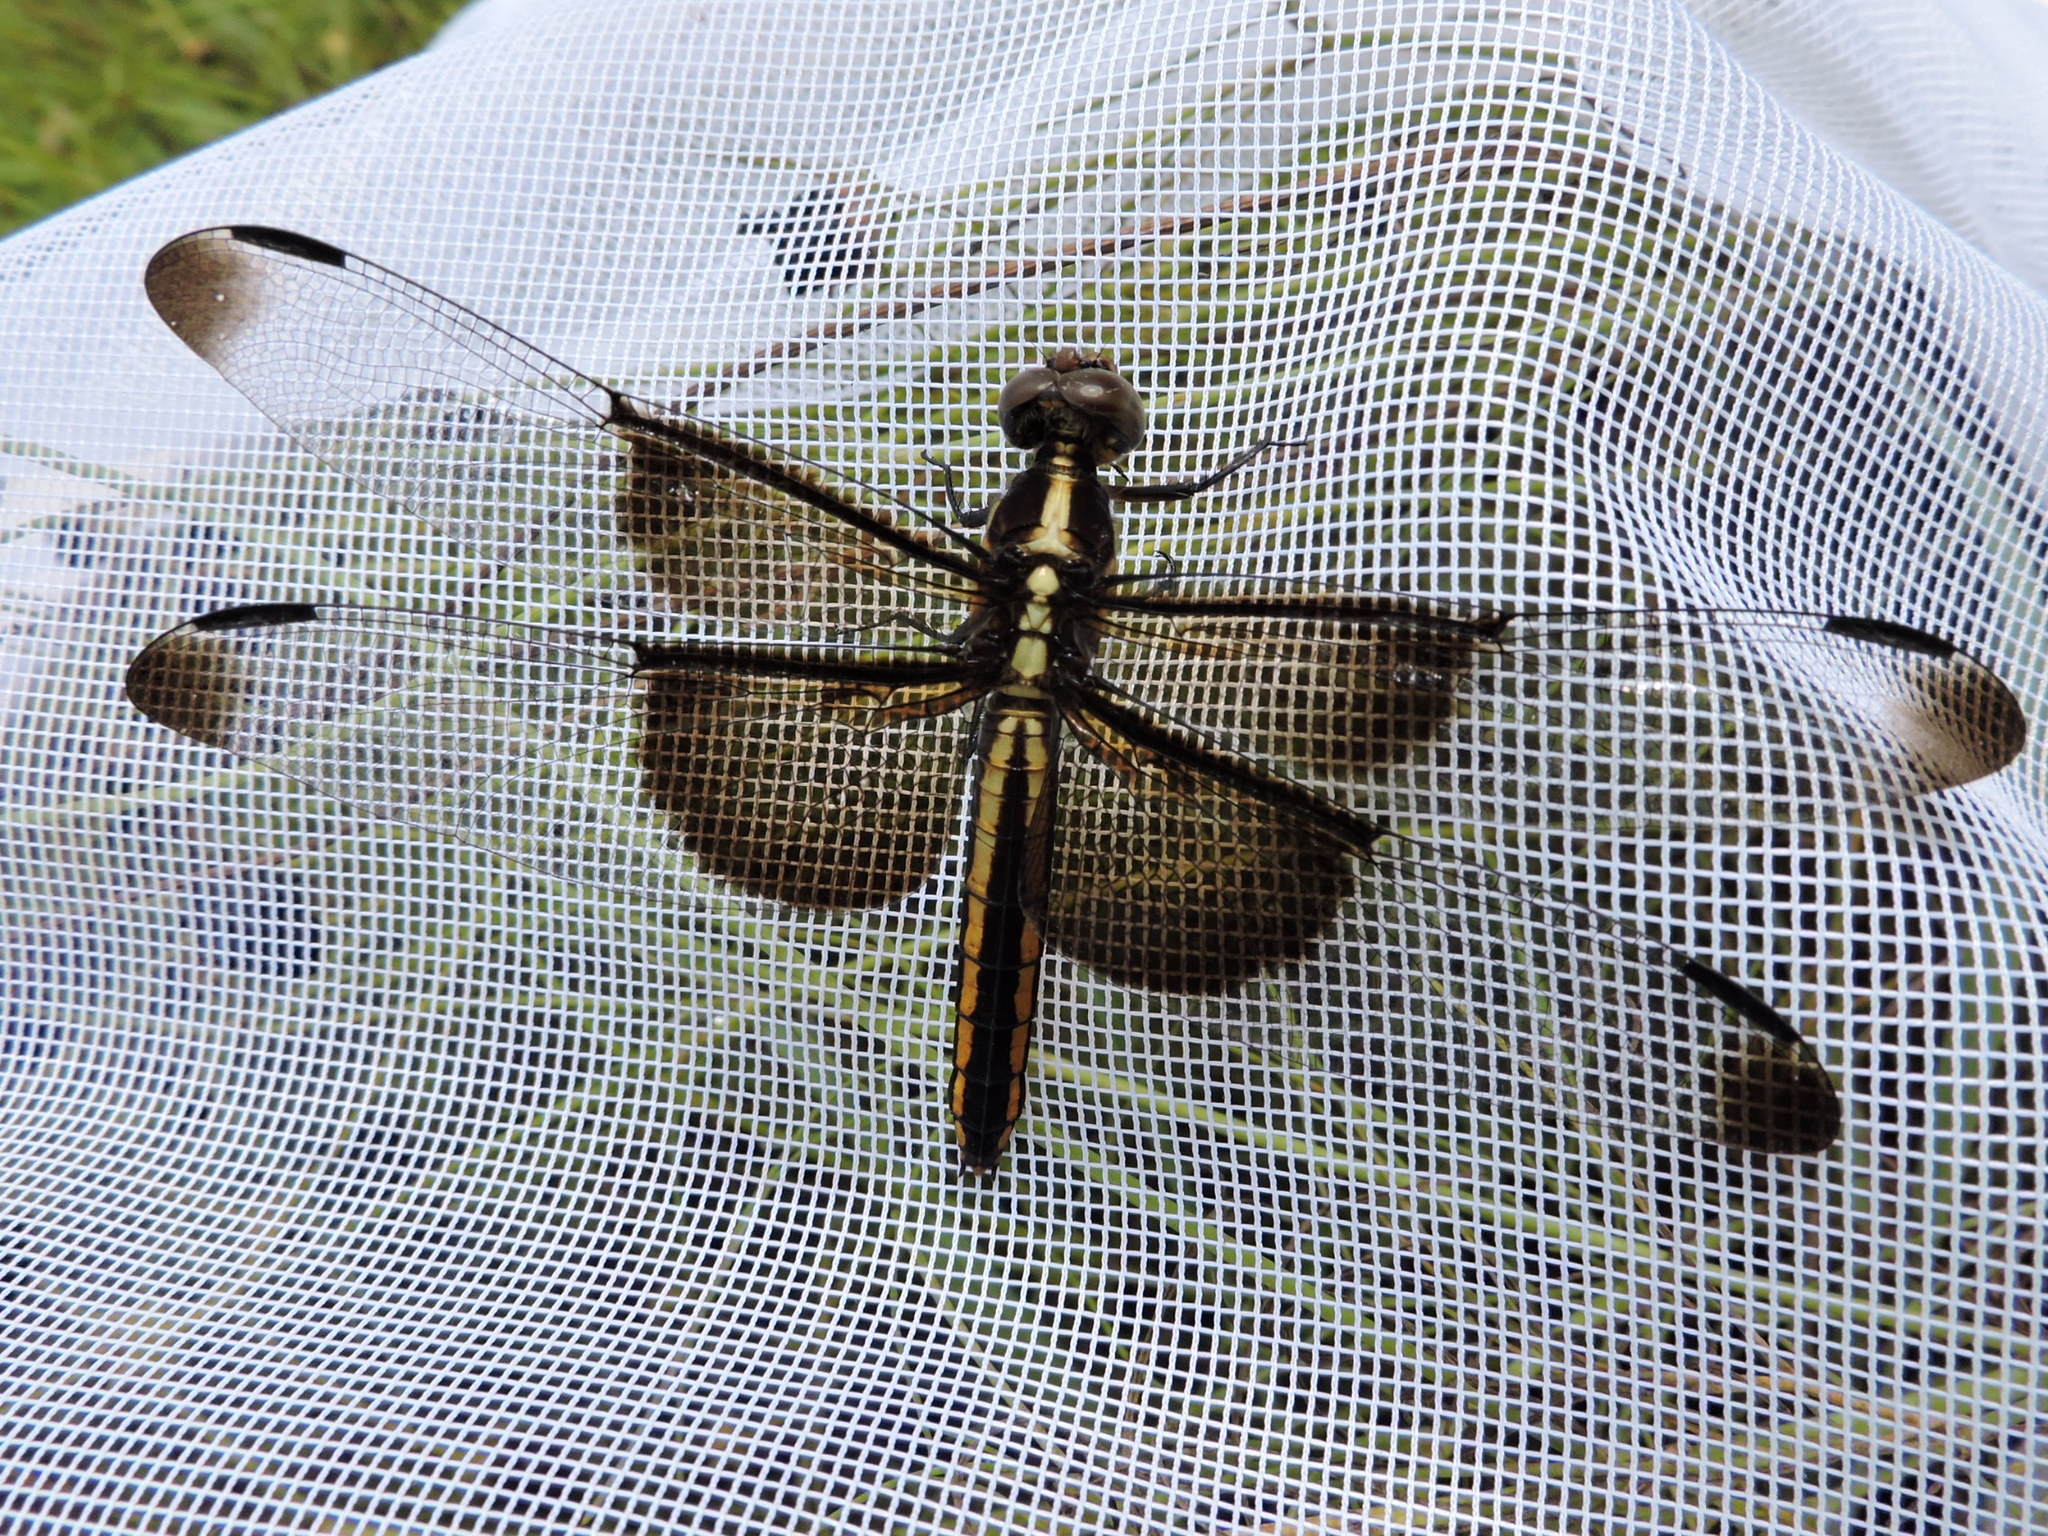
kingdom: Animalia
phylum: Arthropoda
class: Insecta
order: Odonata
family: Libellulidae
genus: Libellula
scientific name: Libellula luctuosa
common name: Widow skimmer
